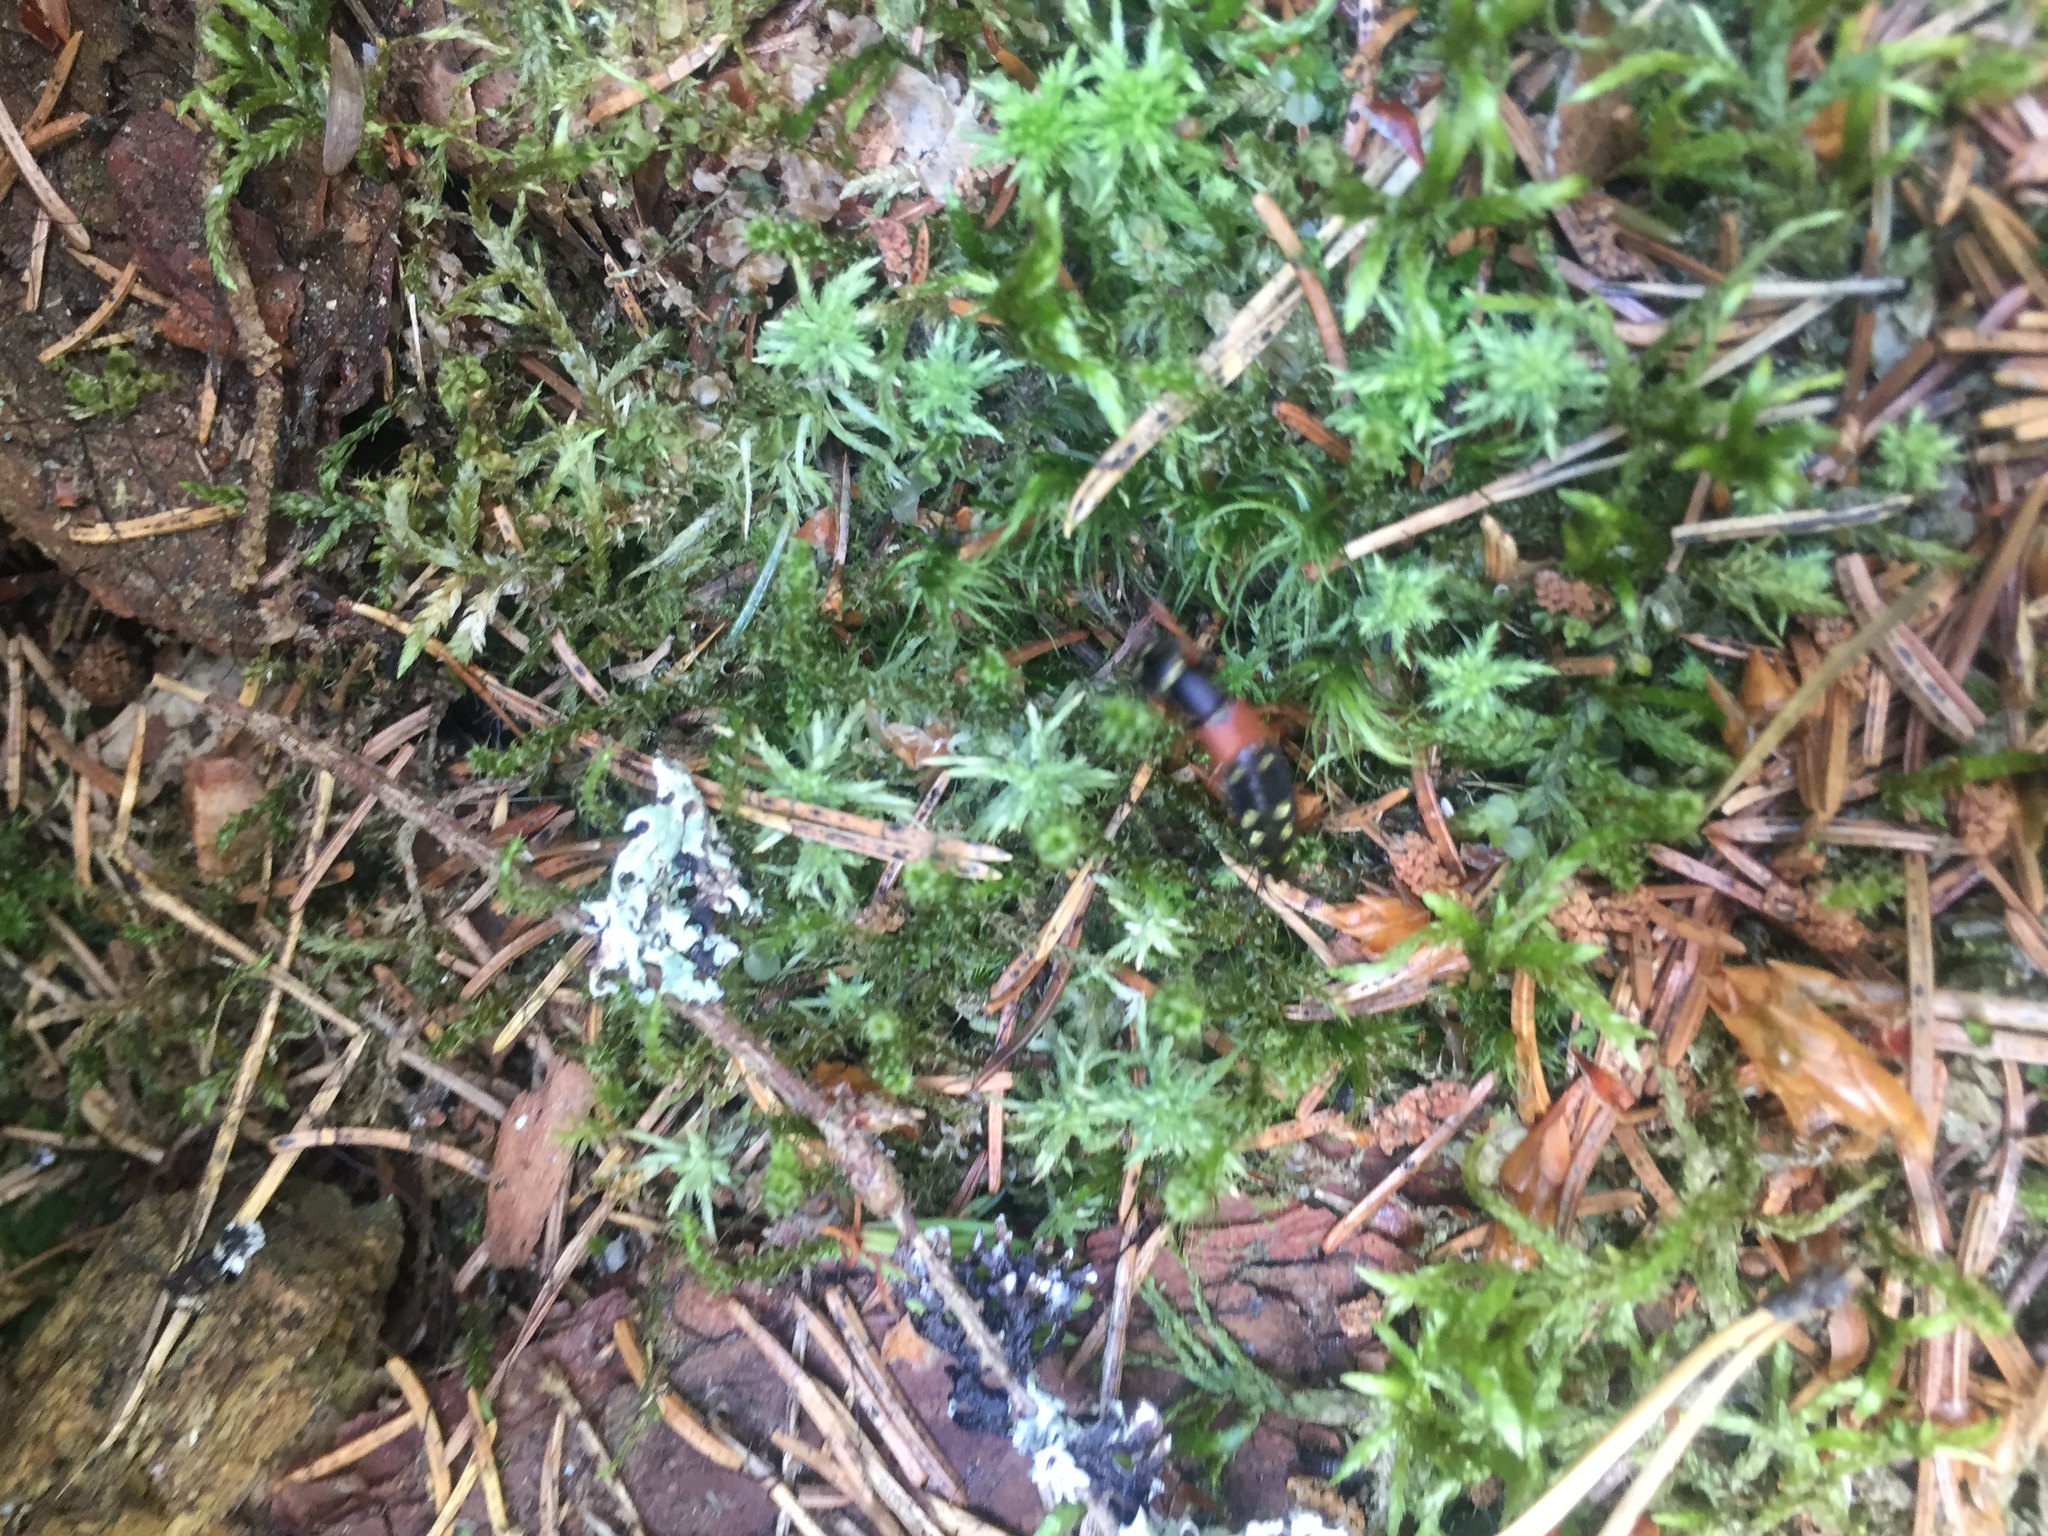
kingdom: Animalia
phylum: Arthropoda
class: Insecta
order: Coleoptera
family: Staphylinidae
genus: Staphylinus
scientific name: Staphylinus erythropterus
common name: Staph beetle
